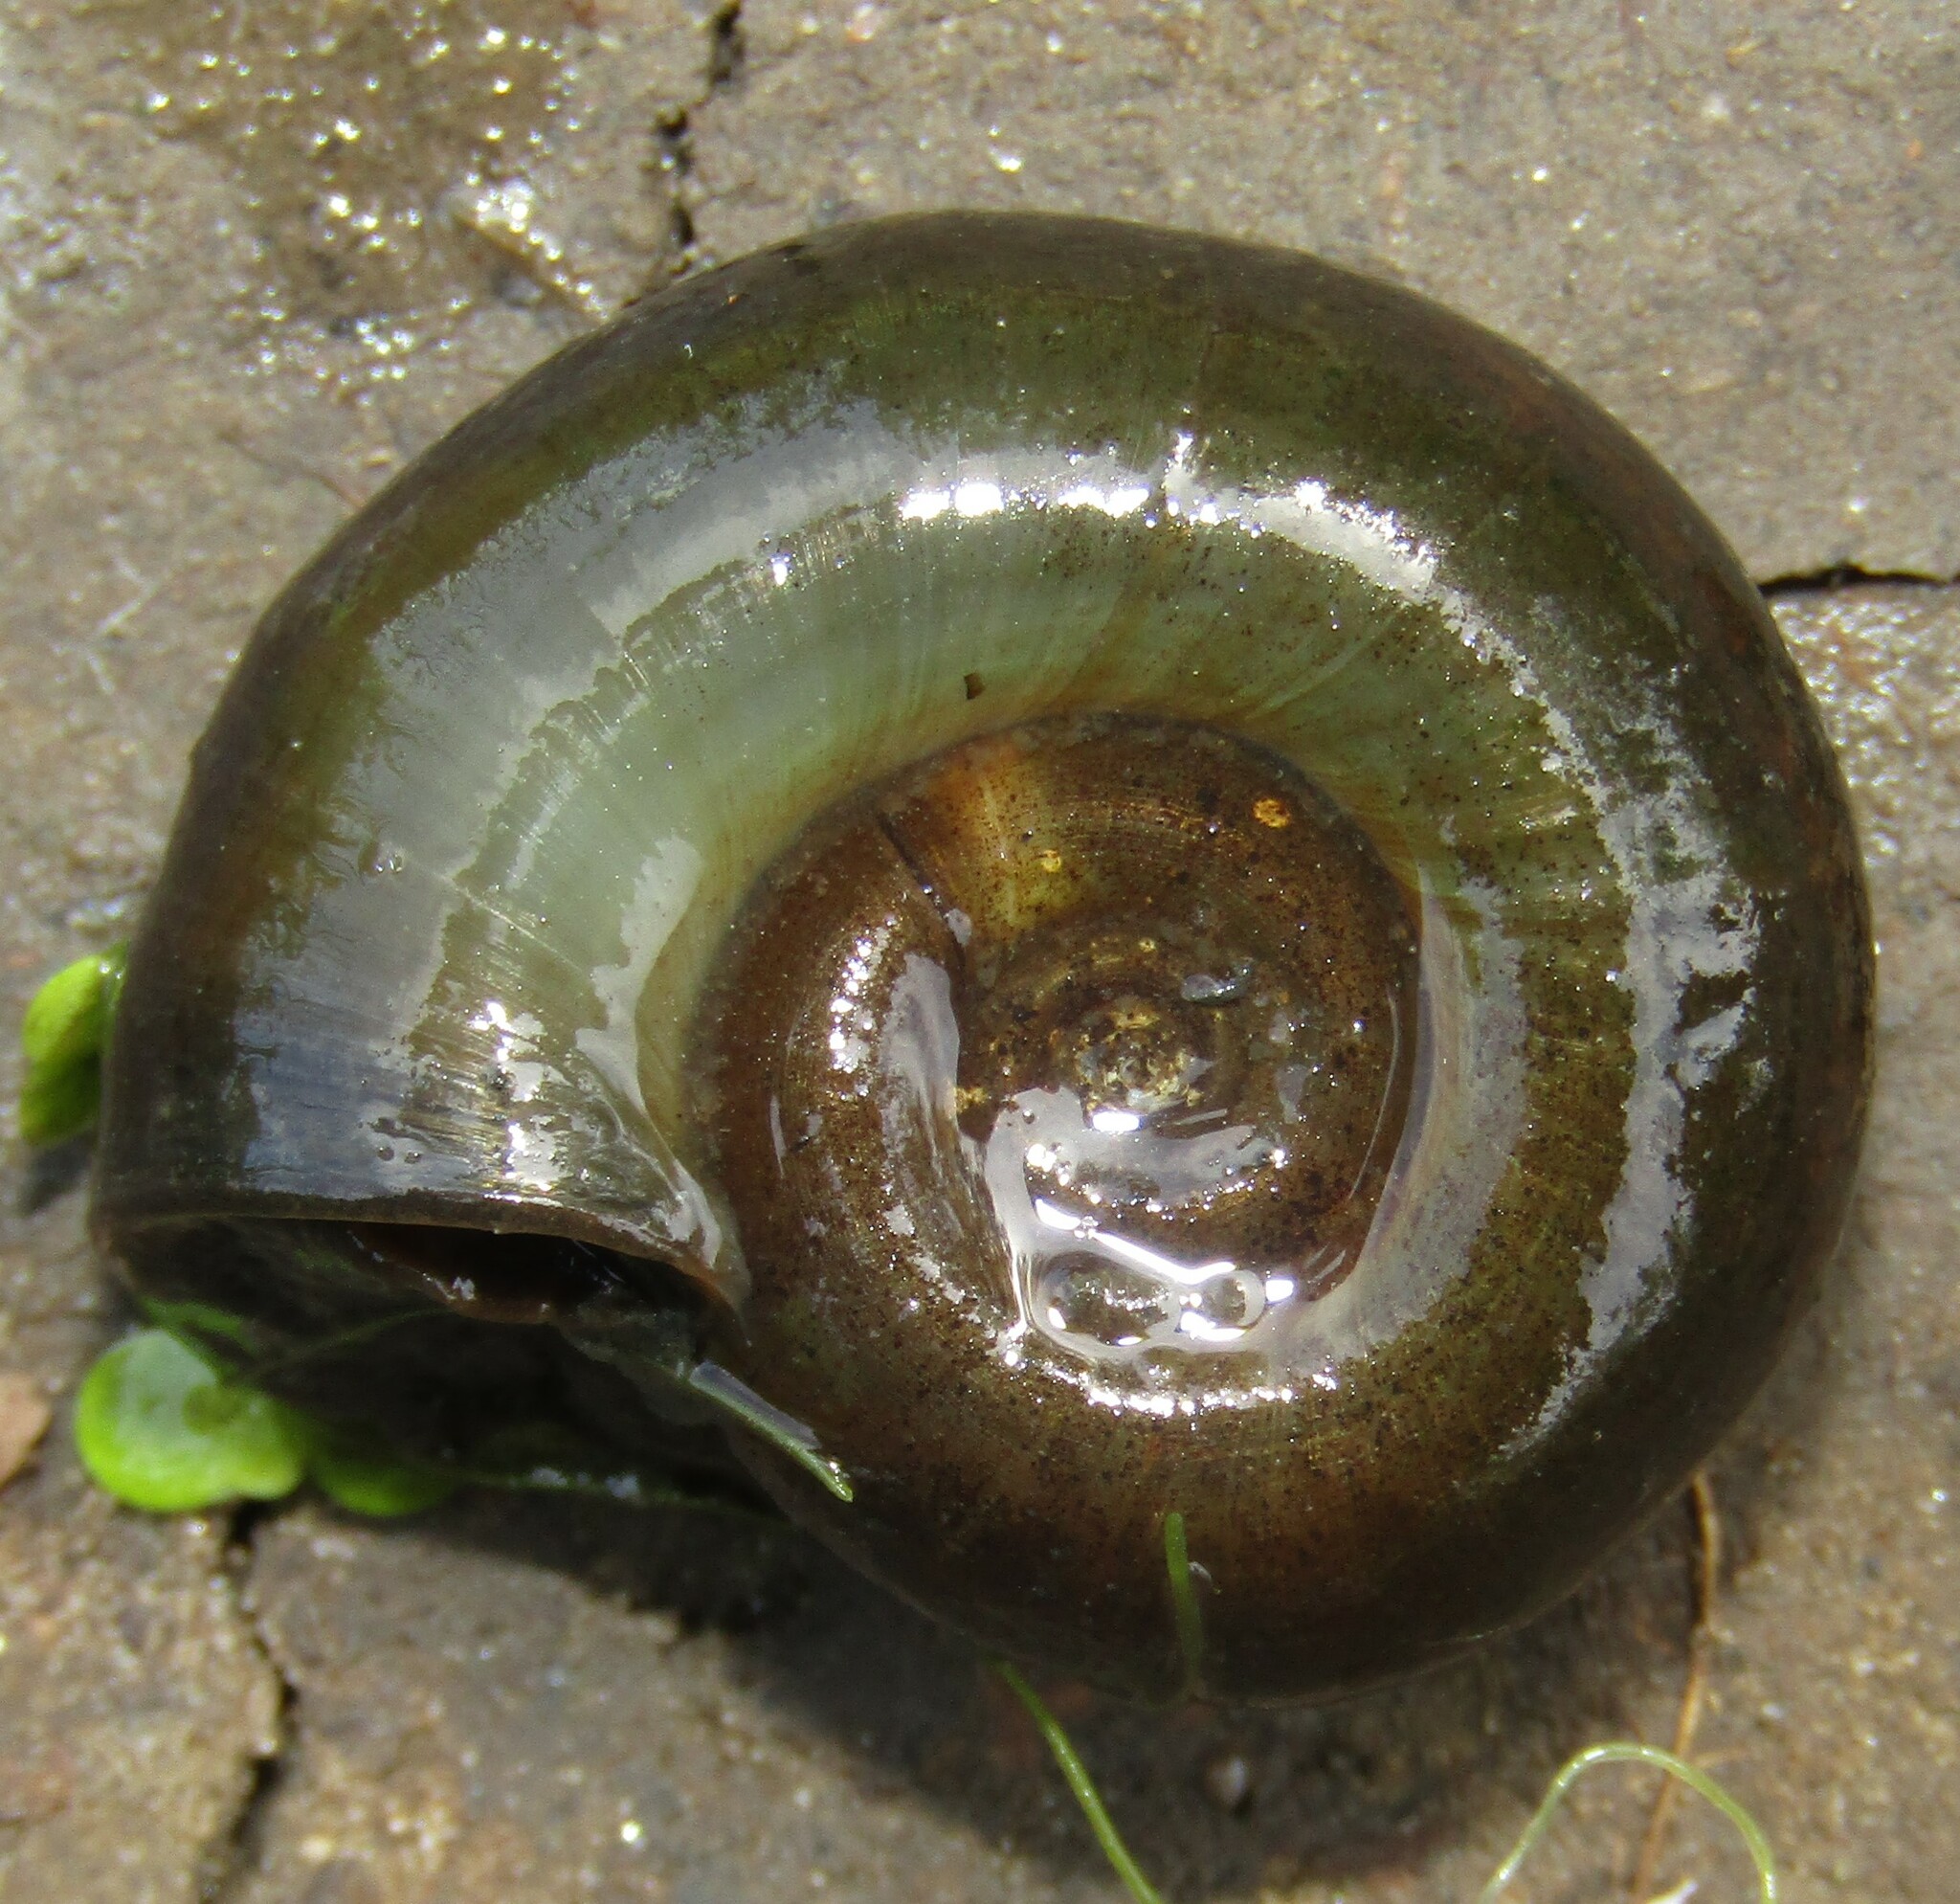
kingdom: Animalia
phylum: Mollusca
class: Gastropoda
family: Planorbidae
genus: Planorbarius
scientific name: Planorbarius corneus
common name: Great ramshorn
